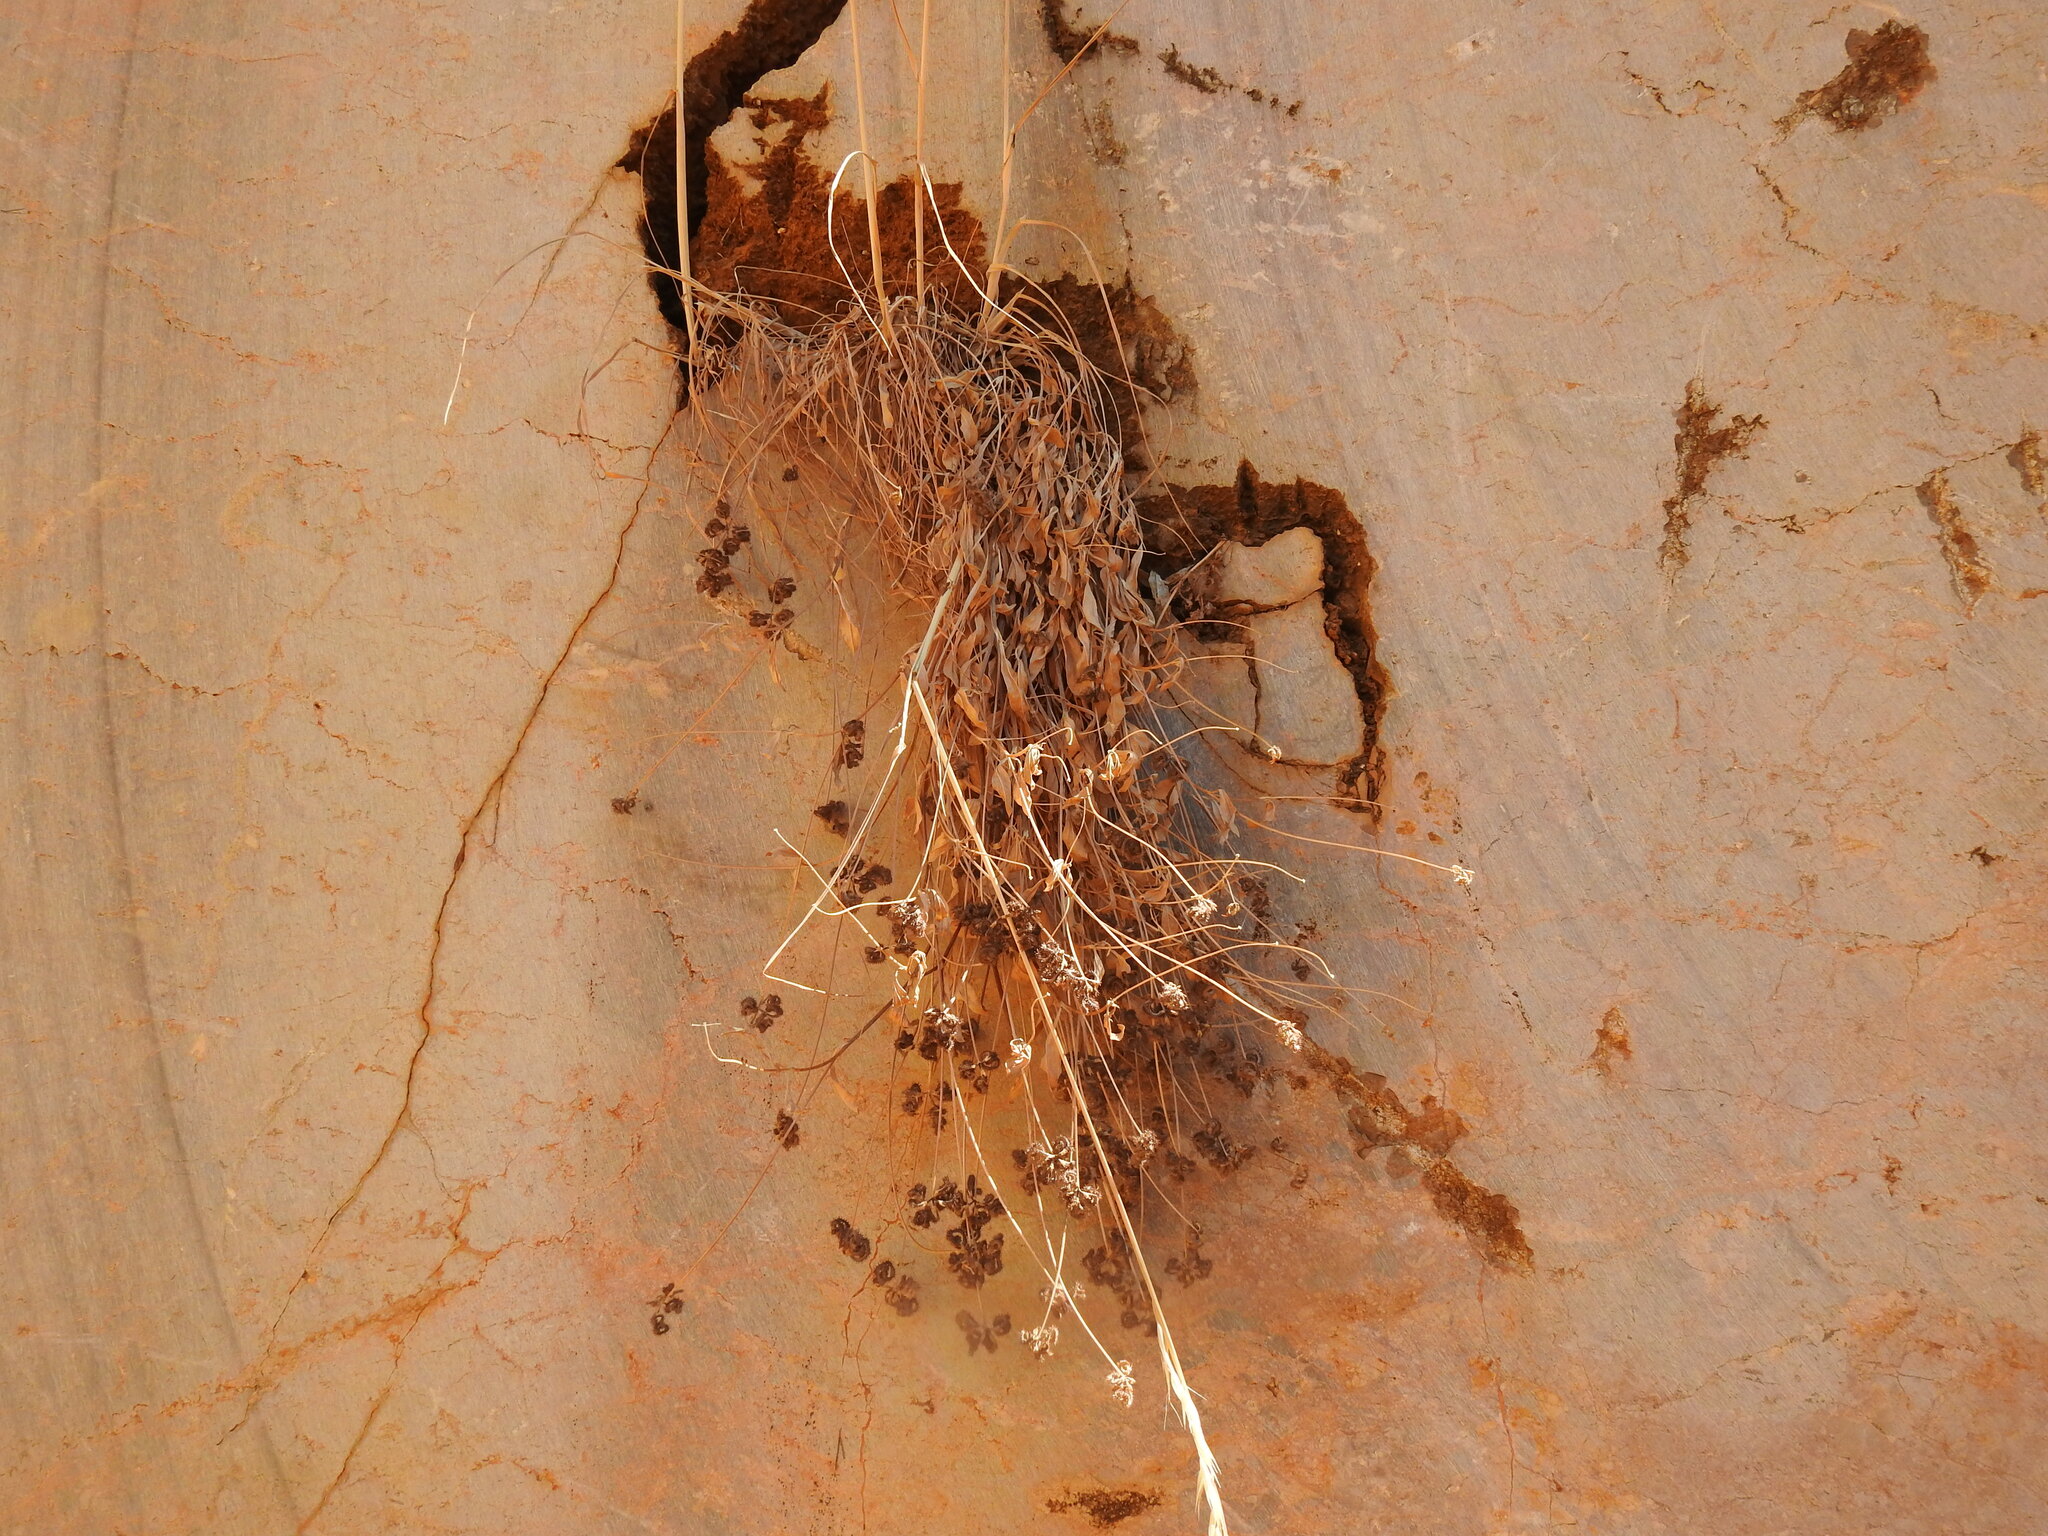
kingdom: Plantae
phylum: Tracheophyta
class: Magnoliopsida
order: Fabales
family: Fabaceae
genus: Scorpiurus
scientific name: Scorpiurus muricatus
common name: Caterpillar-plant
